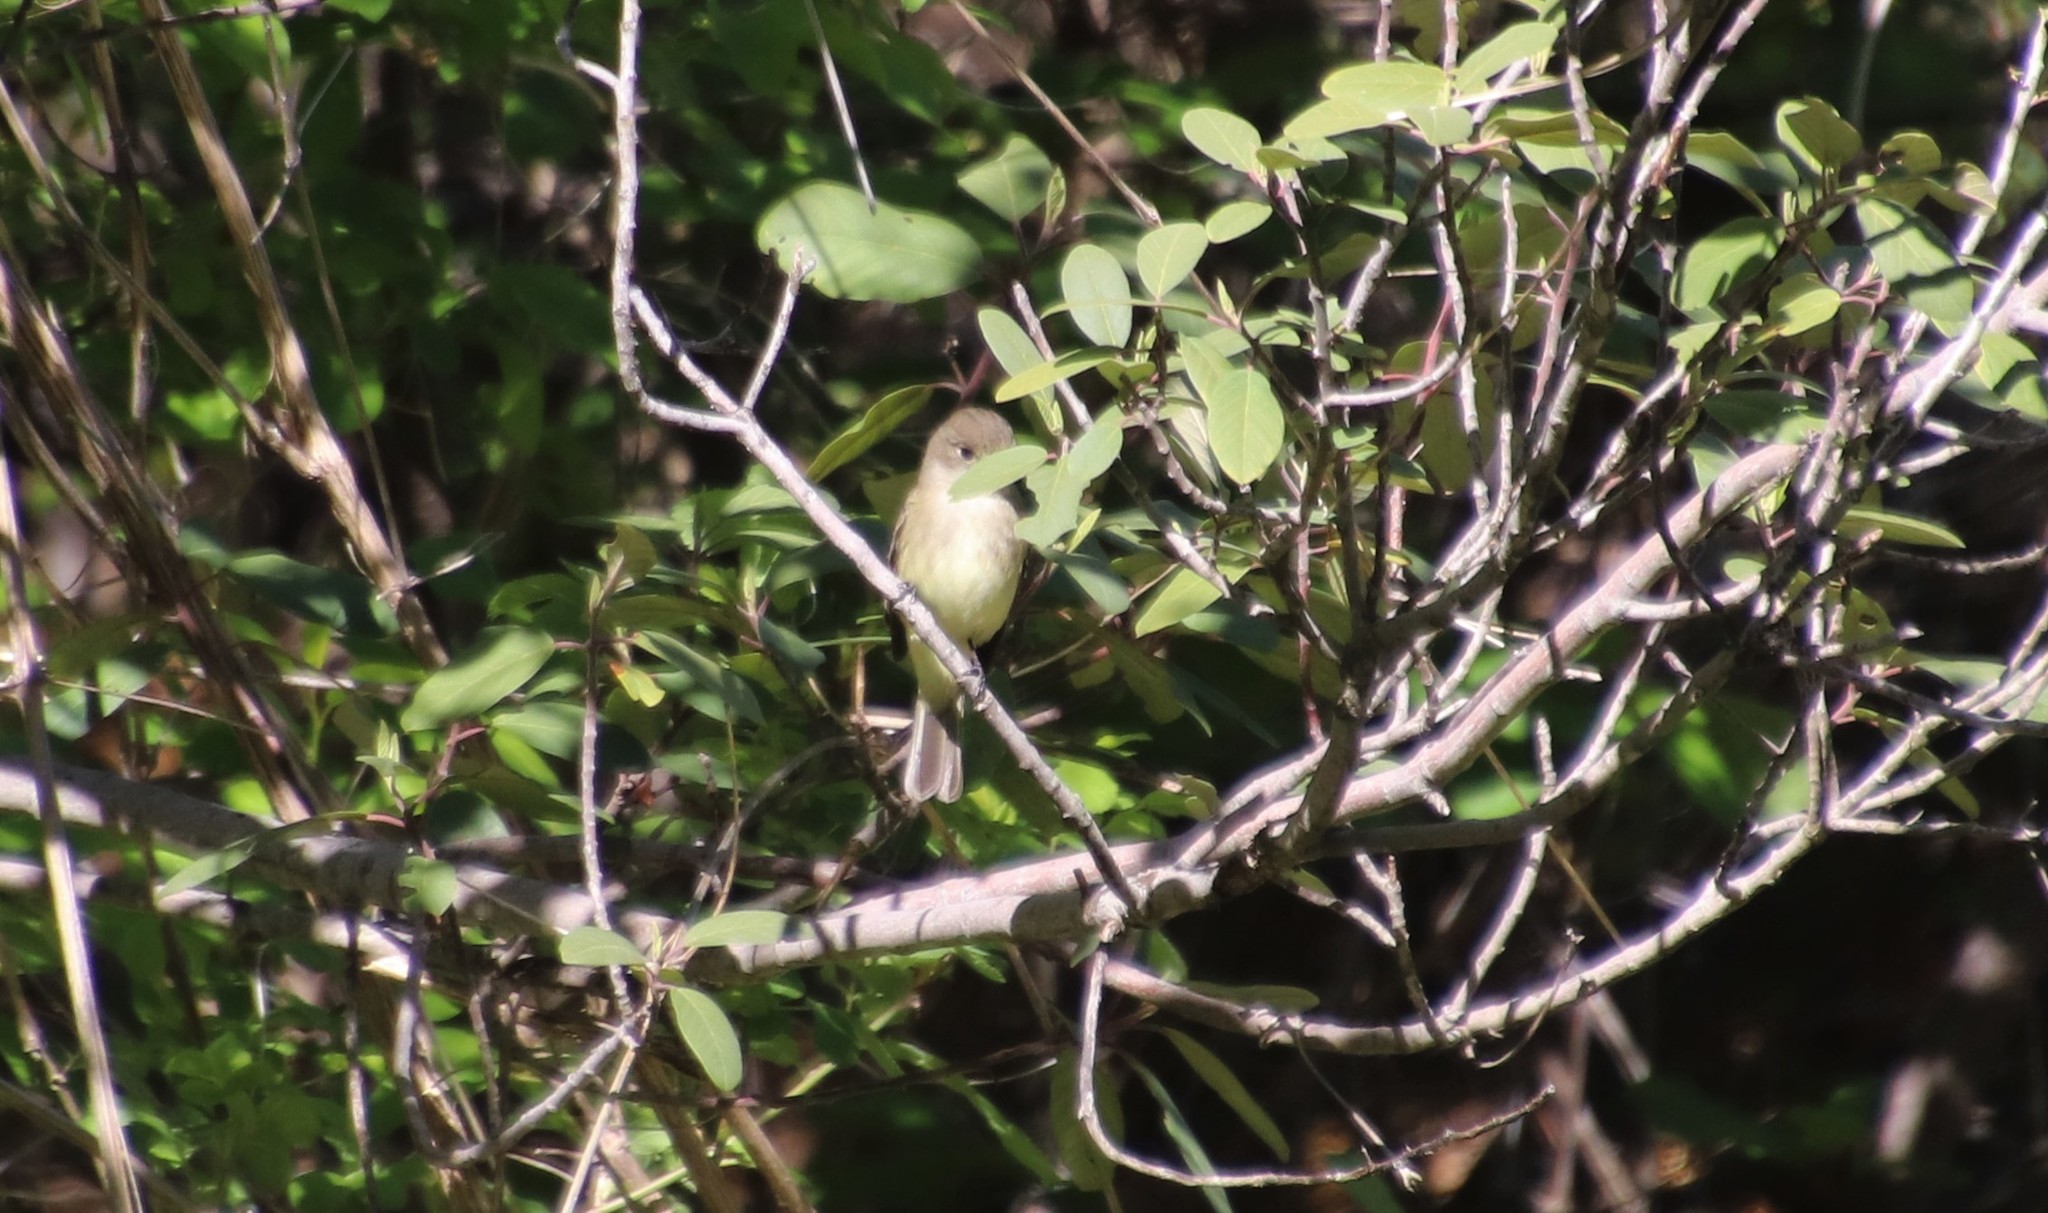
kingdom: Animalia
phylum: Chordata
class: Aves
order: Passeriformes
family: Tyrannidae
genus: Empidonax
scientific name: Empidonax traillii
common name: Willow flycatcher
